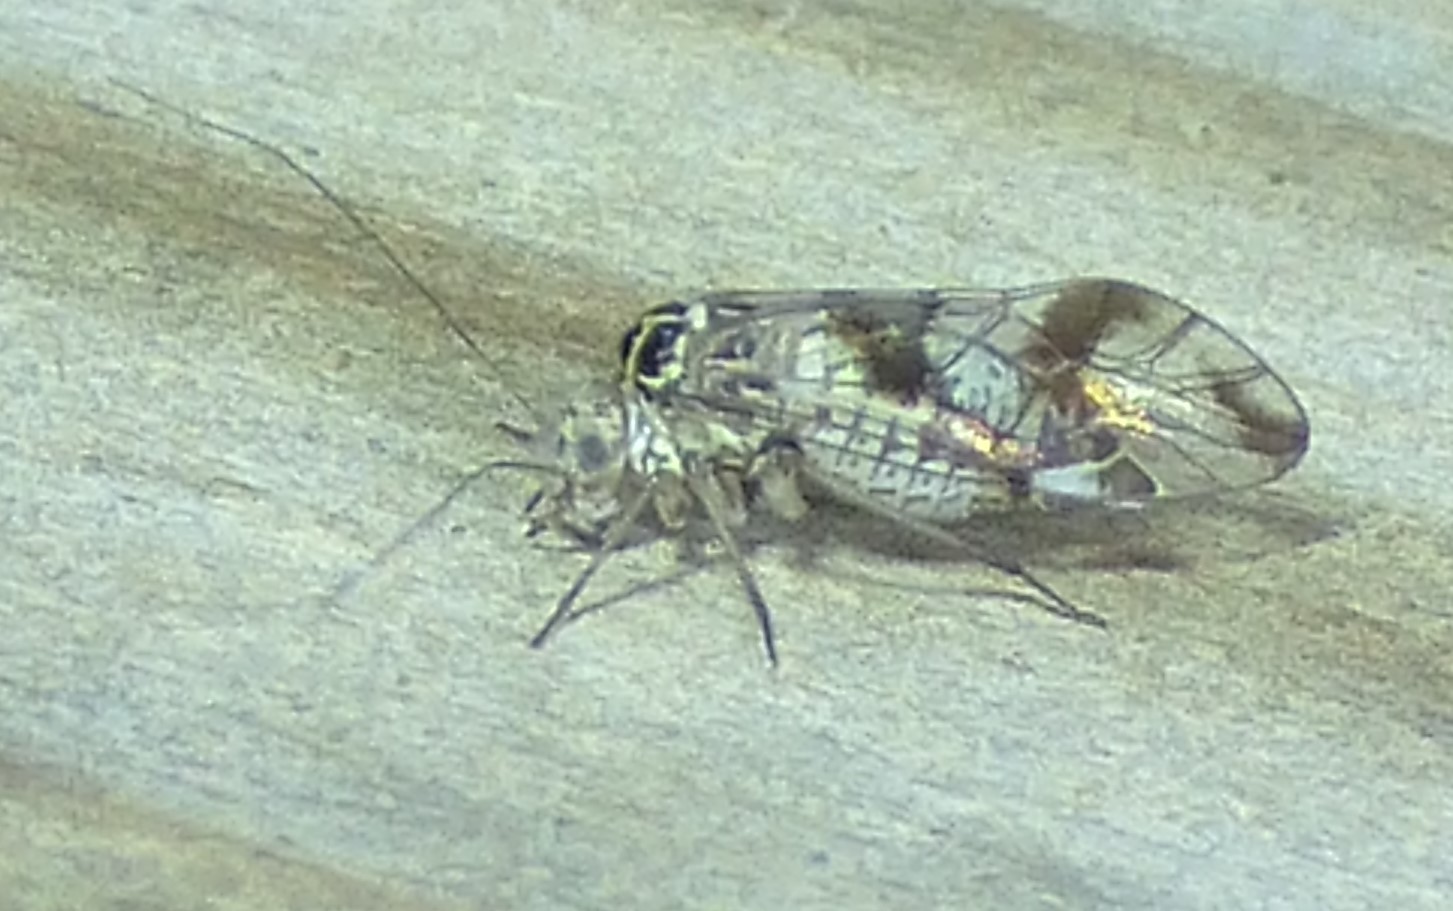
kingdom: Animalia
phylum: Arthropoda
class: Insecta
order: Psocodea
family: Psocidae
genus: Metylophorus
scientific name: Metylophorus novaescotiae
